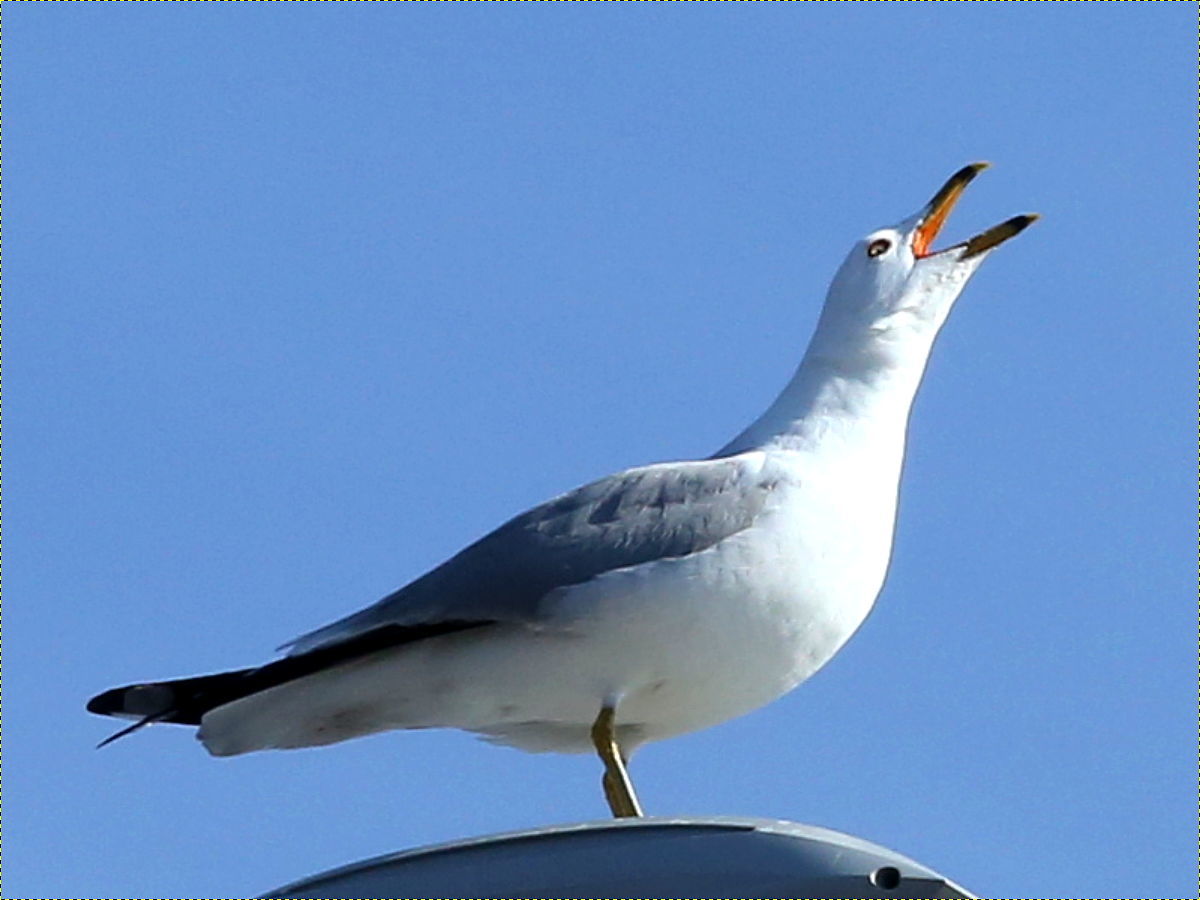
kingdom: Animalia
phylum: Chordata
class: Aves
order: Charadriiformes
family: Laridae
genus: Larus
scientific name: Larus delawarensis
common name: Ring-billed gull
